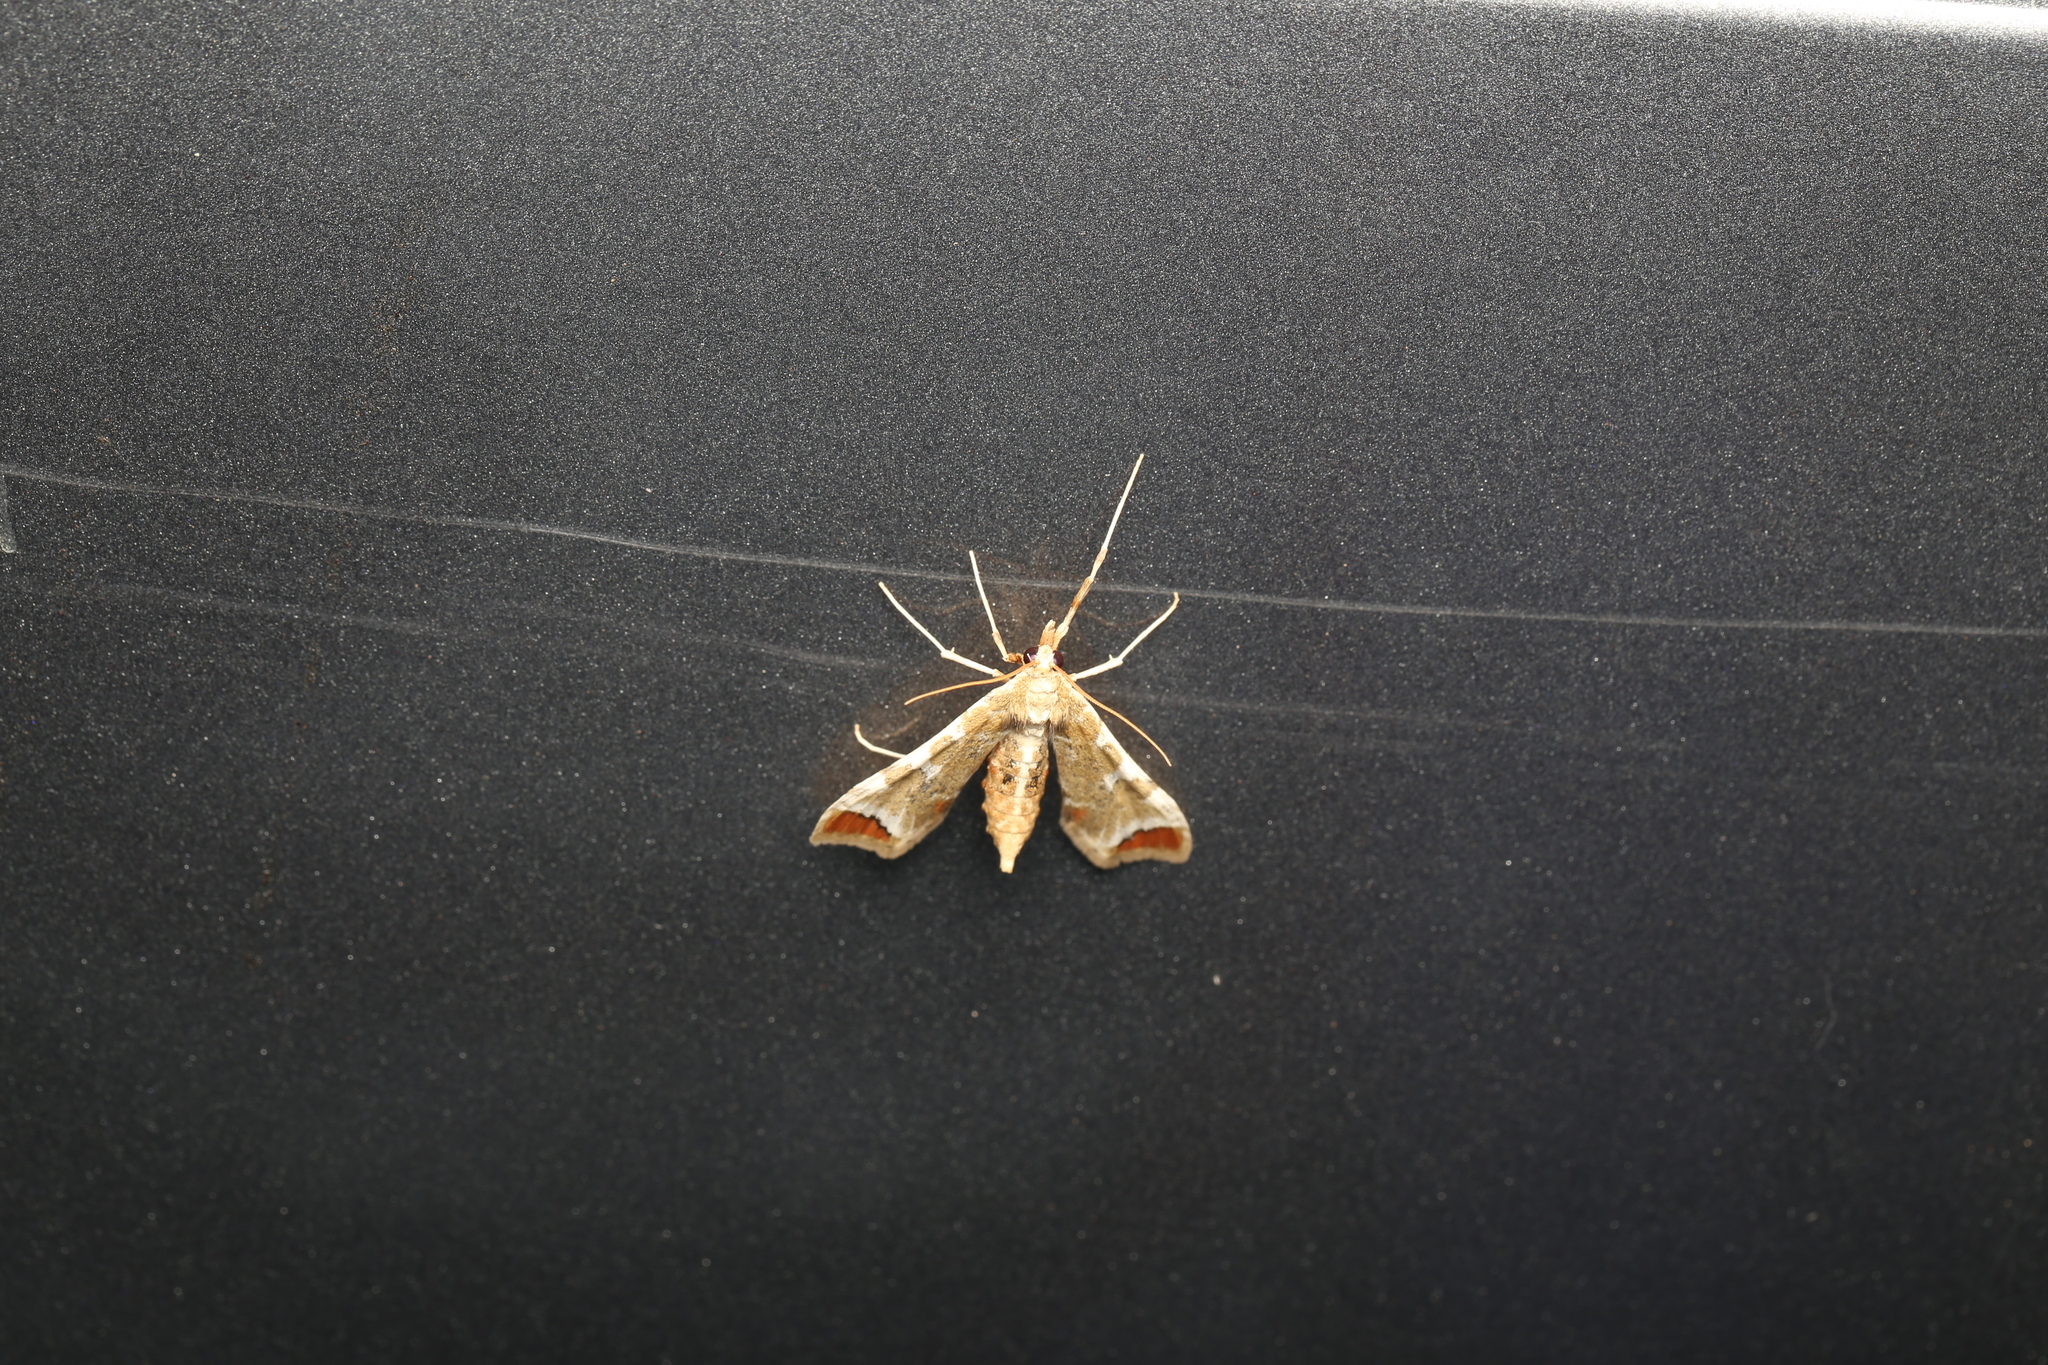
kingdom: Animalia
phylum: Arthropoda
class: Insecta
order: Lepidoptera
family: Crambidae
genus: Sceliodes
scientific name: Sceliodes cordalis
